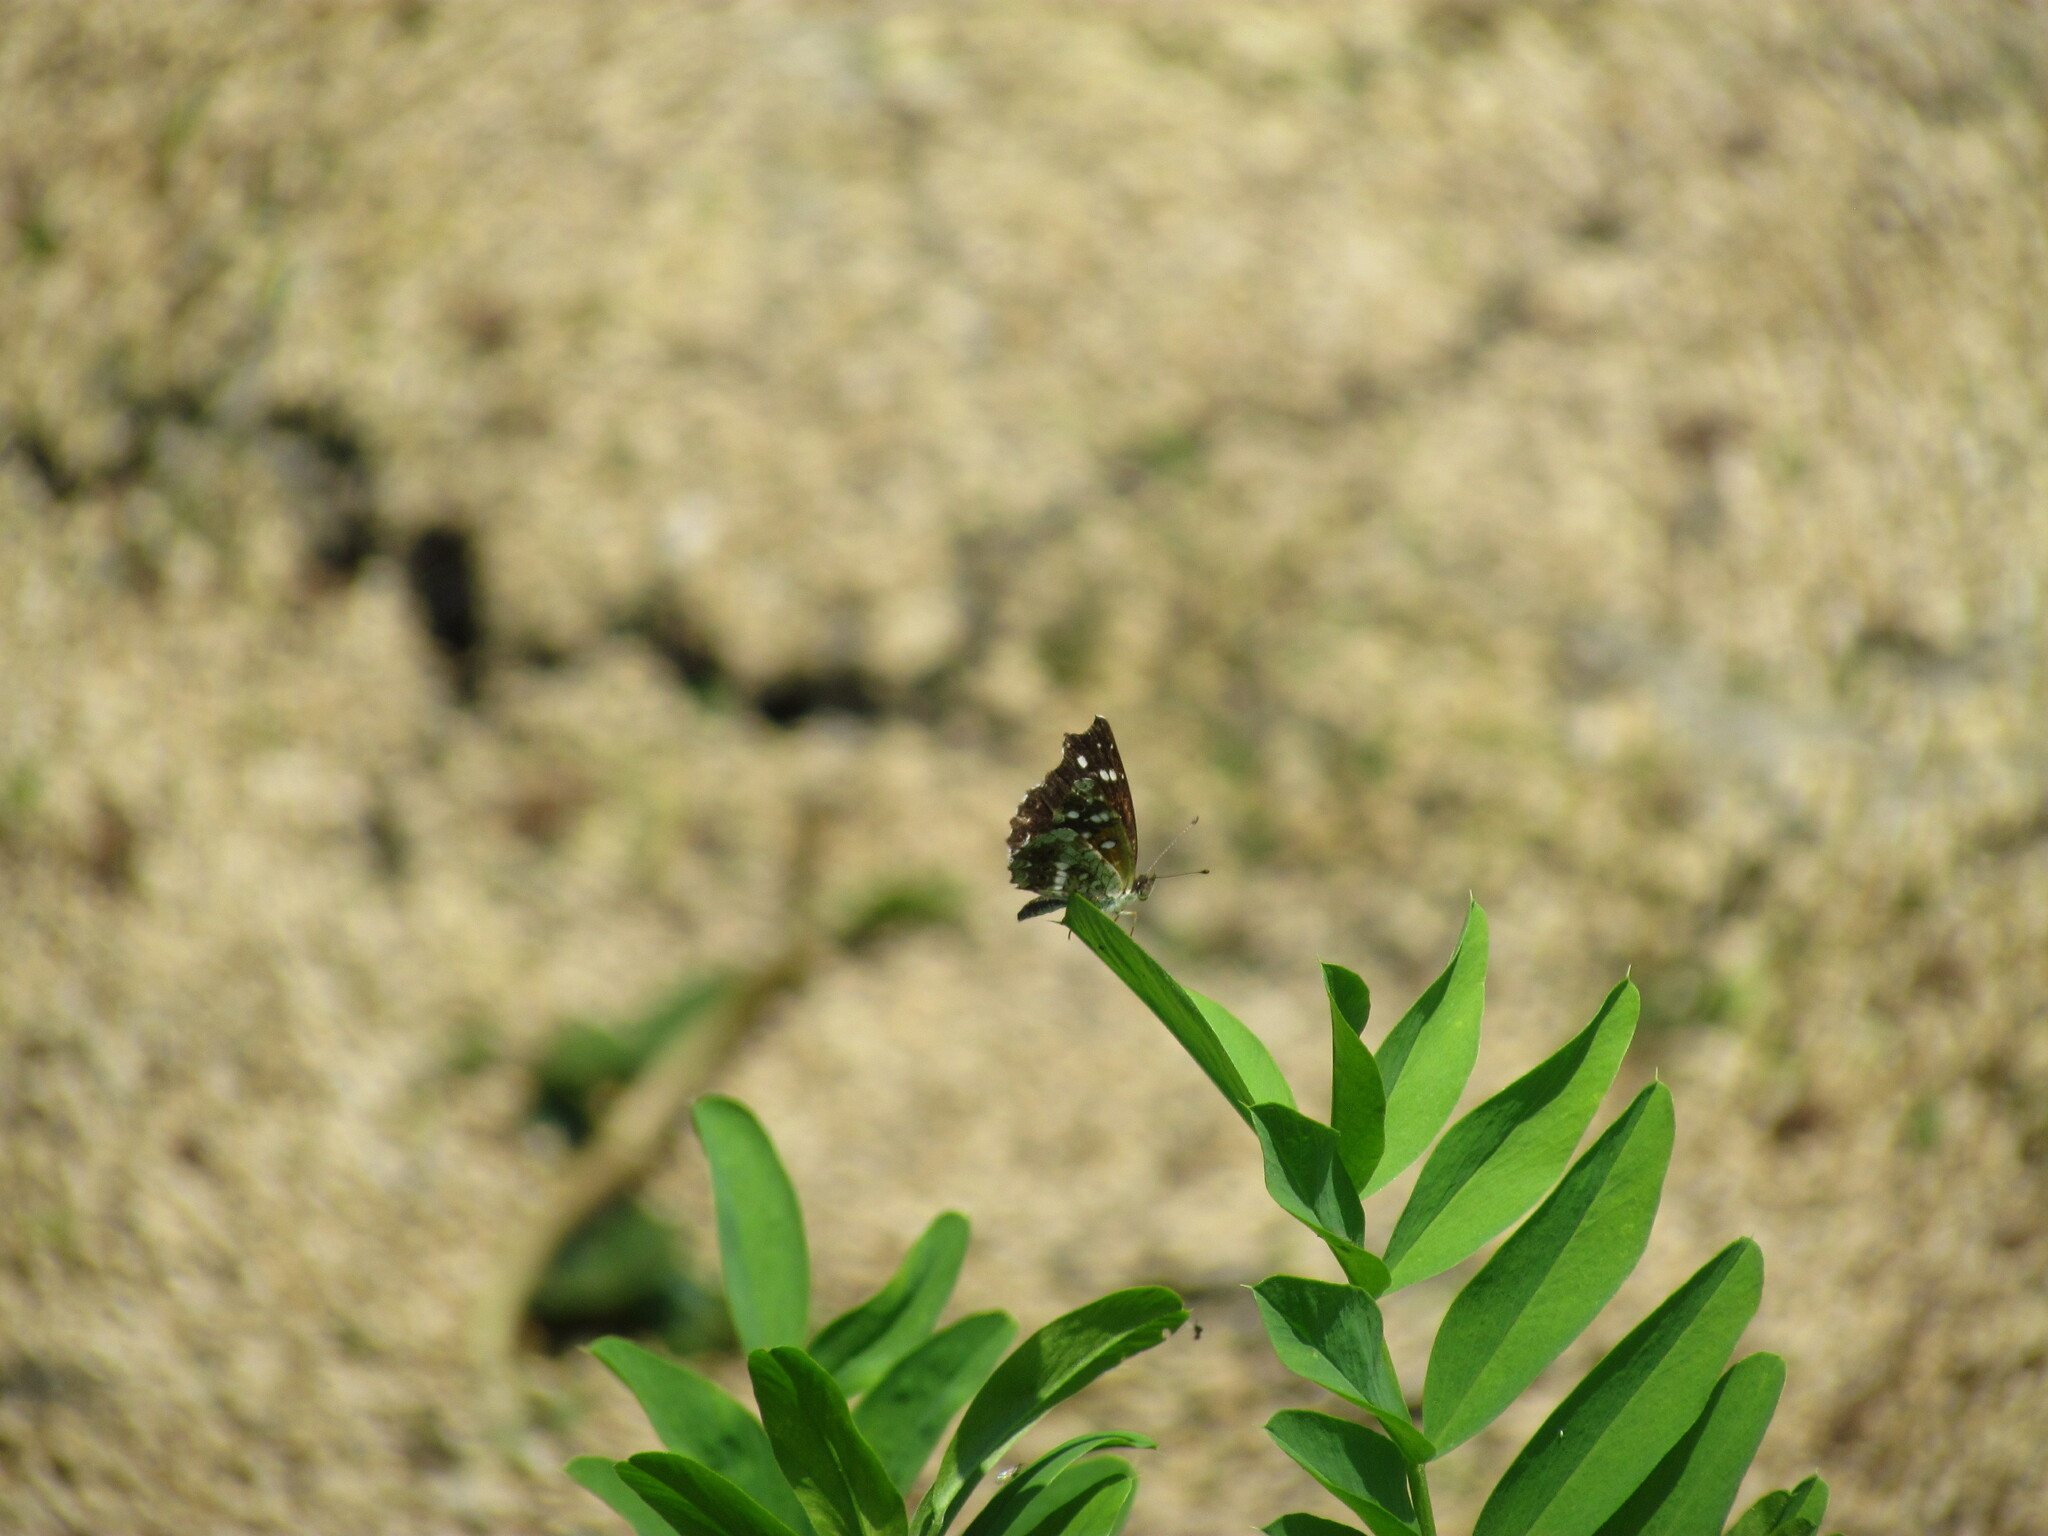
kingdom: Animalia
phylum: Arthropoda
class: Insecta
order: Lepidoptera
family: Nymphalidae
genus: Ortilia
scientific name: Ortilia ithra
